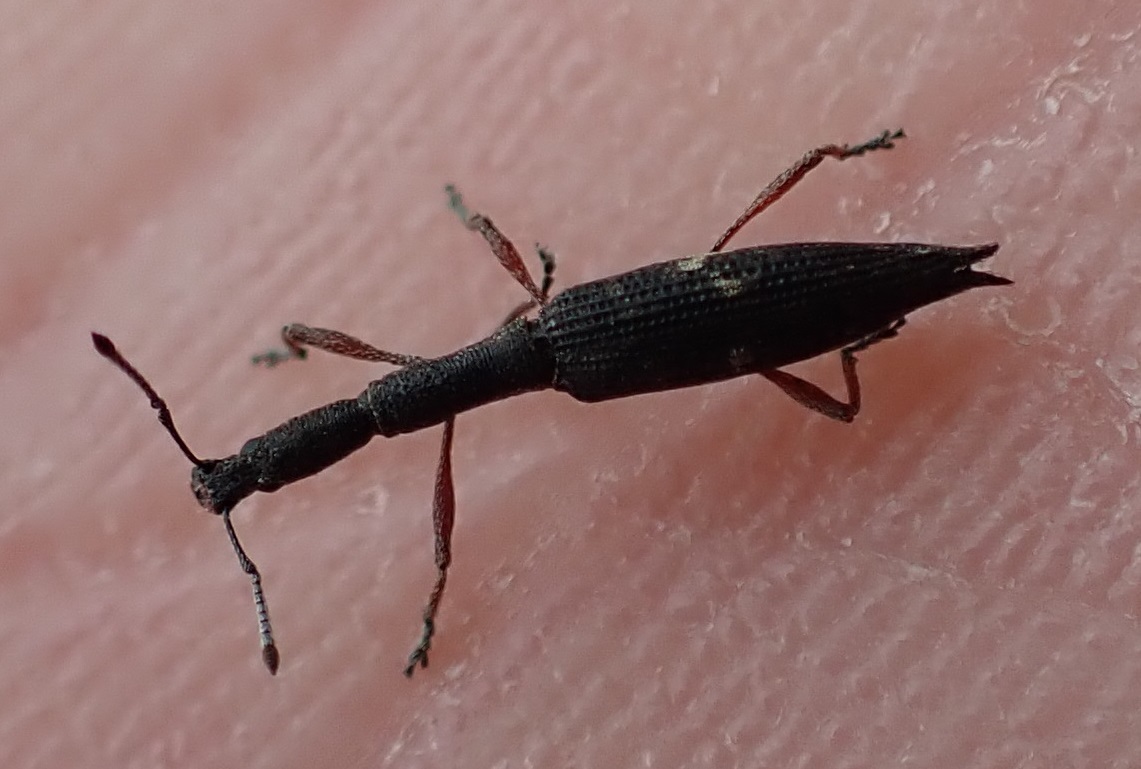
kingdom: Animalia
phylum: Arthropoda
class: Insecta
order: Coleoptera
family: Curculionidae
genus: Rhadinosomus
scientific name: Rhadinosomus lacordairei
